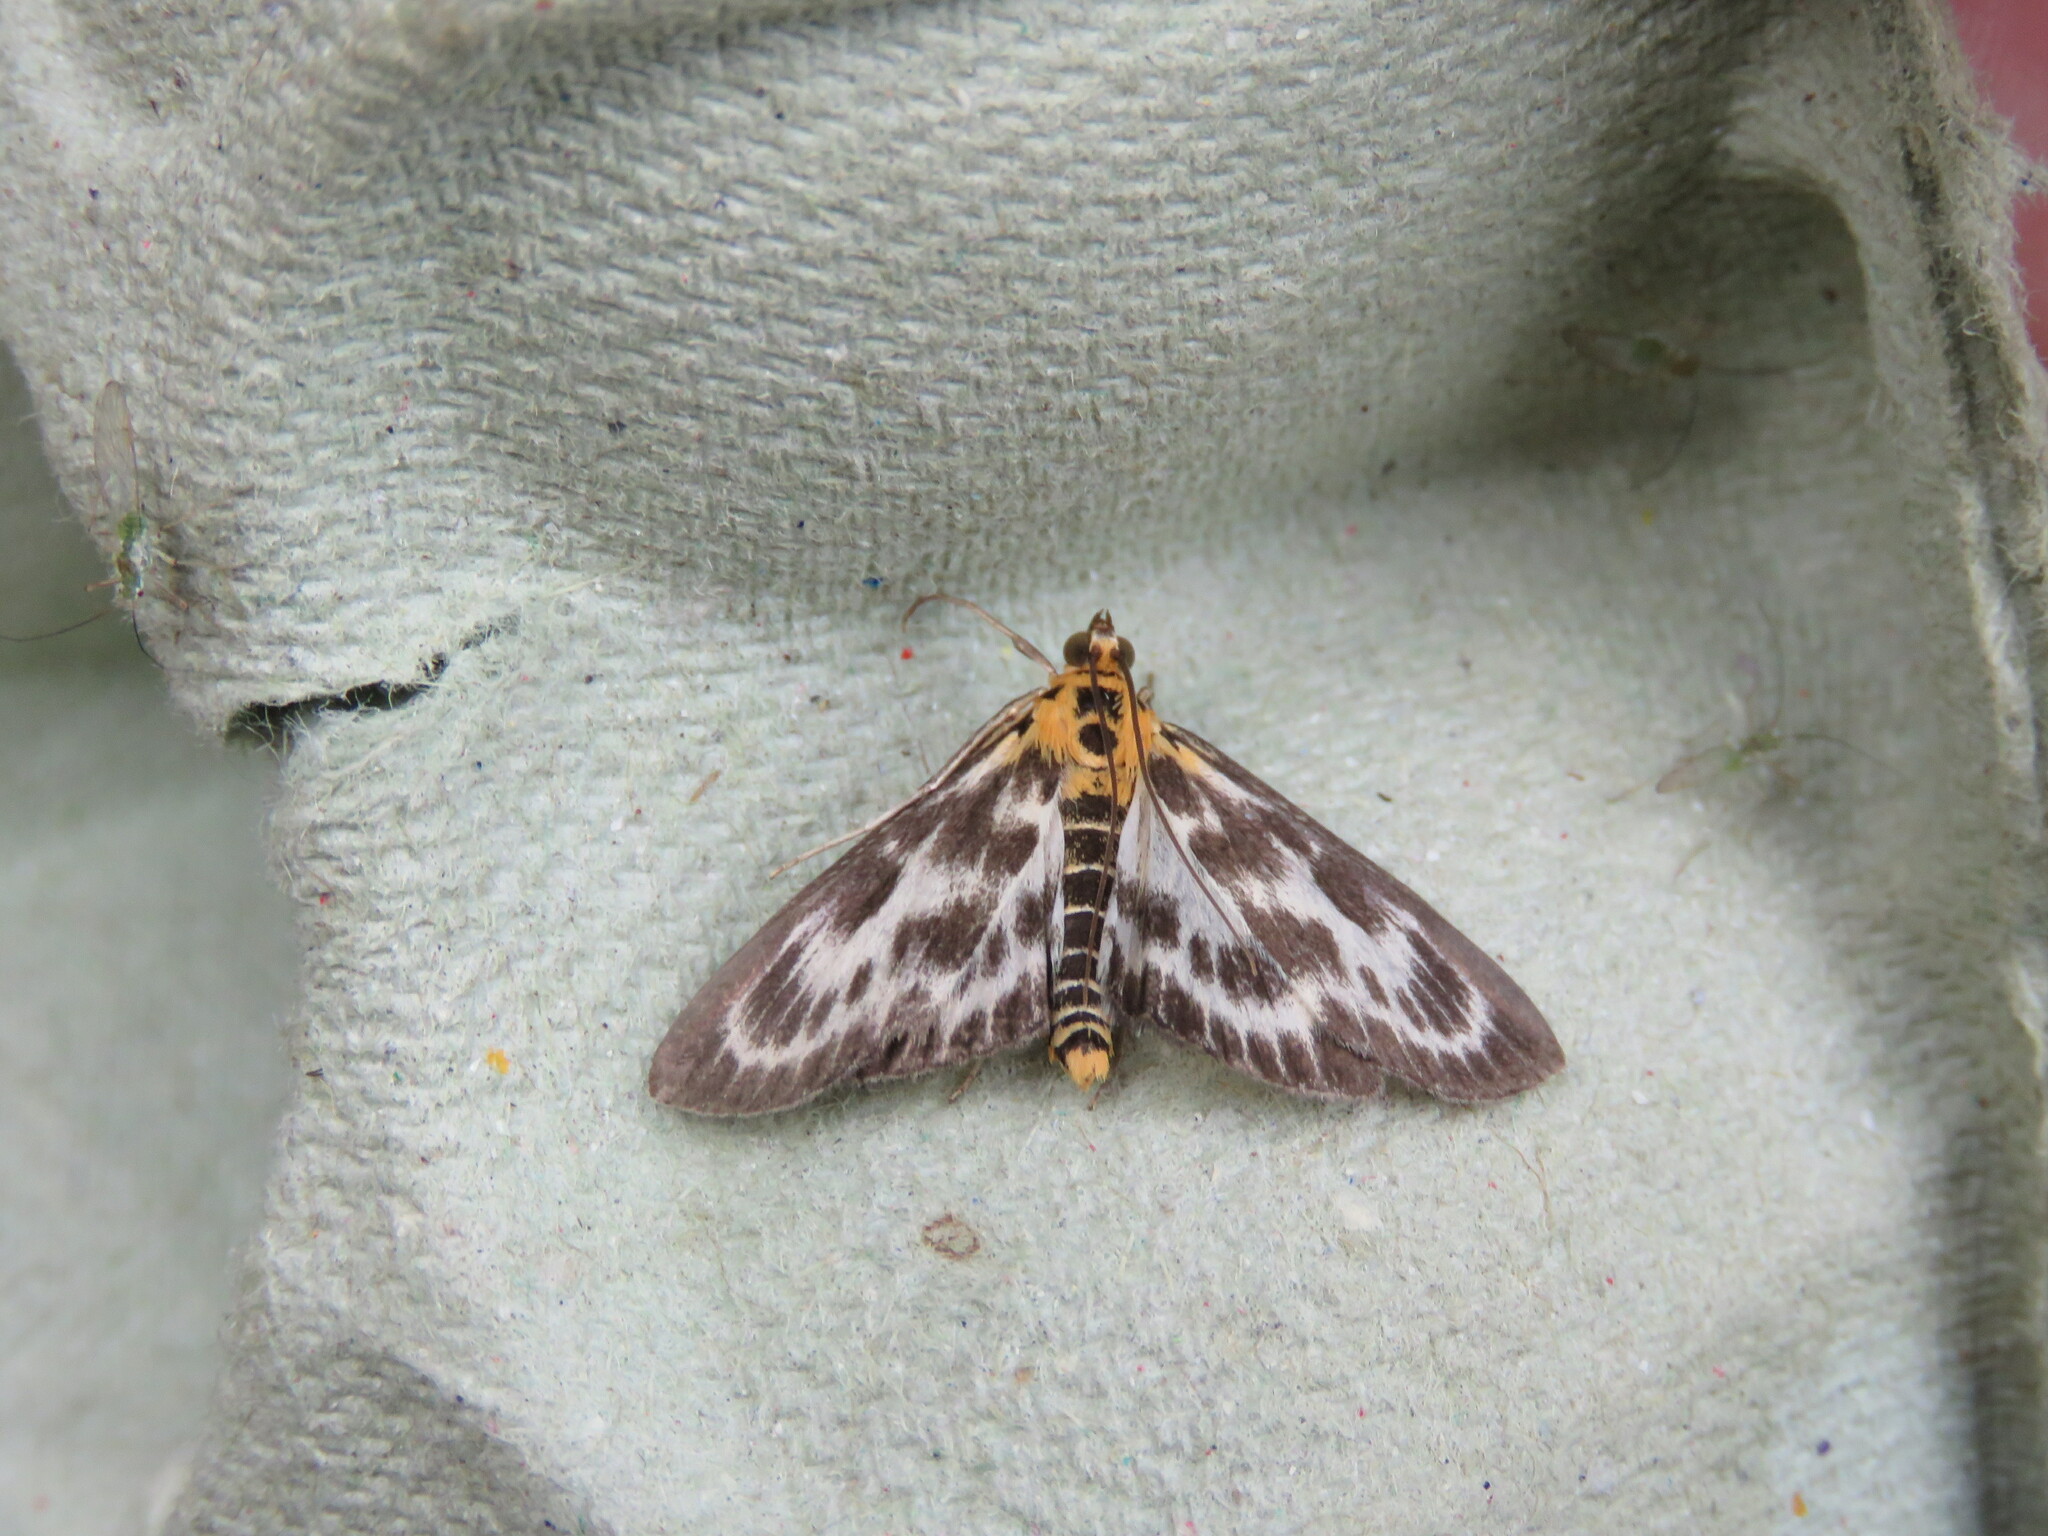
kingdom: Animalia
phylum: Arthropoda
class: Insecta
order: Lepidoptera
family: Crambidae
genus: Anania
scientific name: Anania hortulata
